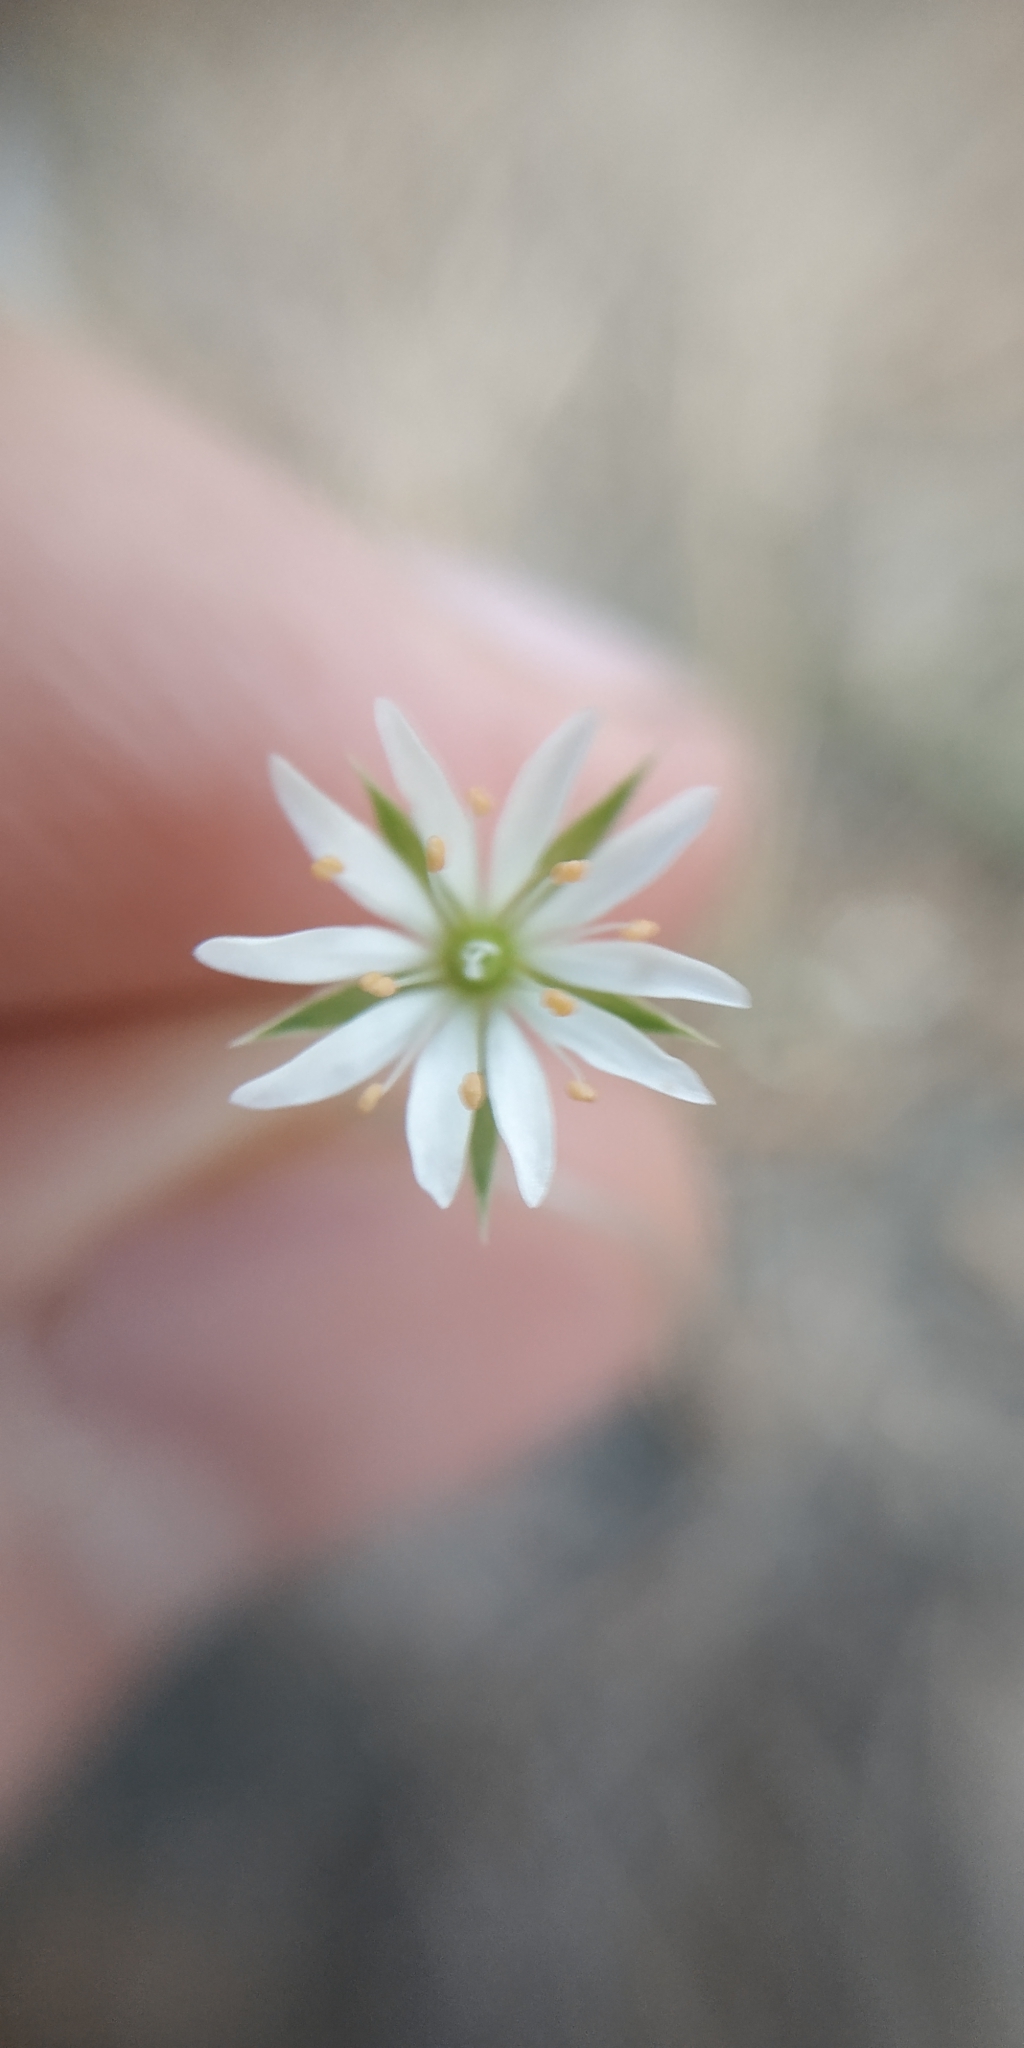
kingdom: Plantae
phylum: Tracheophyta
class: Magnoliopsida
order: Caryophyllales
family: Caryophyllaceae
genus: Stellaria
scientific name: Stellaria graminea
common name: Grass-like starwort
